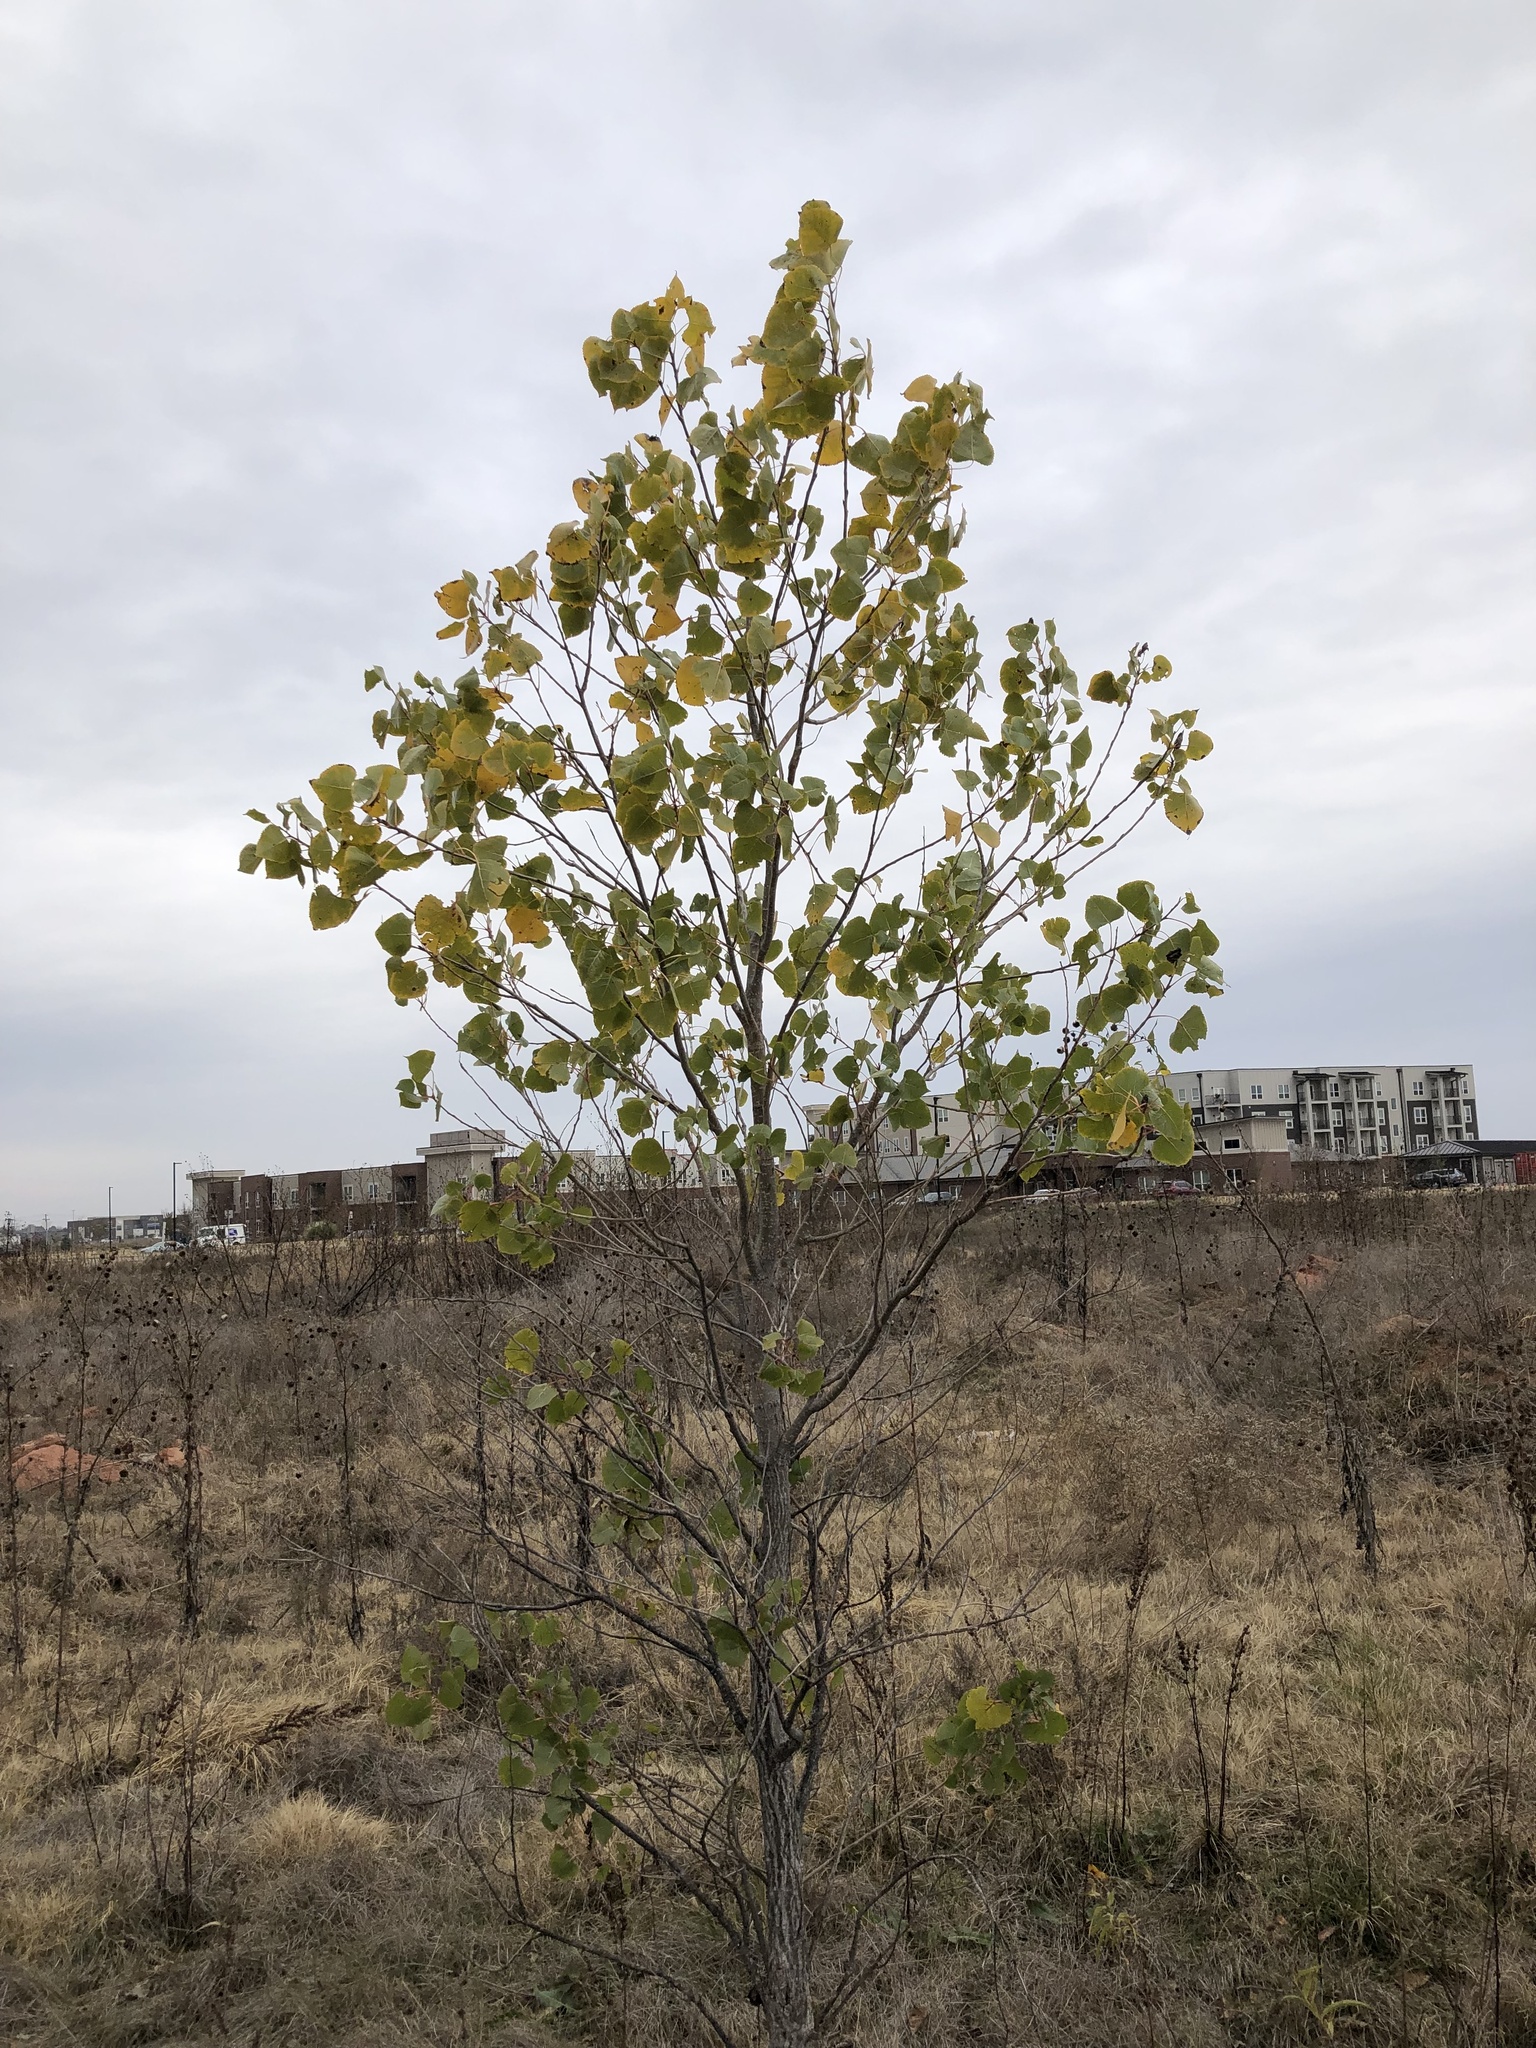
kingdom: Plantae
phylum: Tracheophyta
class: Magnoliopsida
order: Malpighiales
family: Salicaceae
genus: Populus
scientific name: Populus deltoides
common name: Eastern cottonwood
